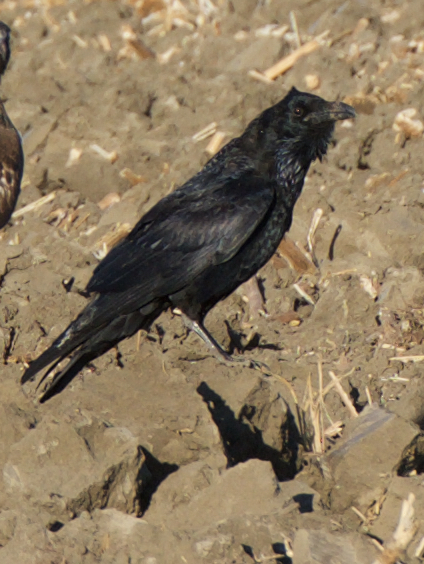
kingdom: Animalia
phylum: Chordata
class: Aves
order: Passeriformes
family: Corvidae
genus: Corvus
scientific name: Corvus corax
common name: Common raven
